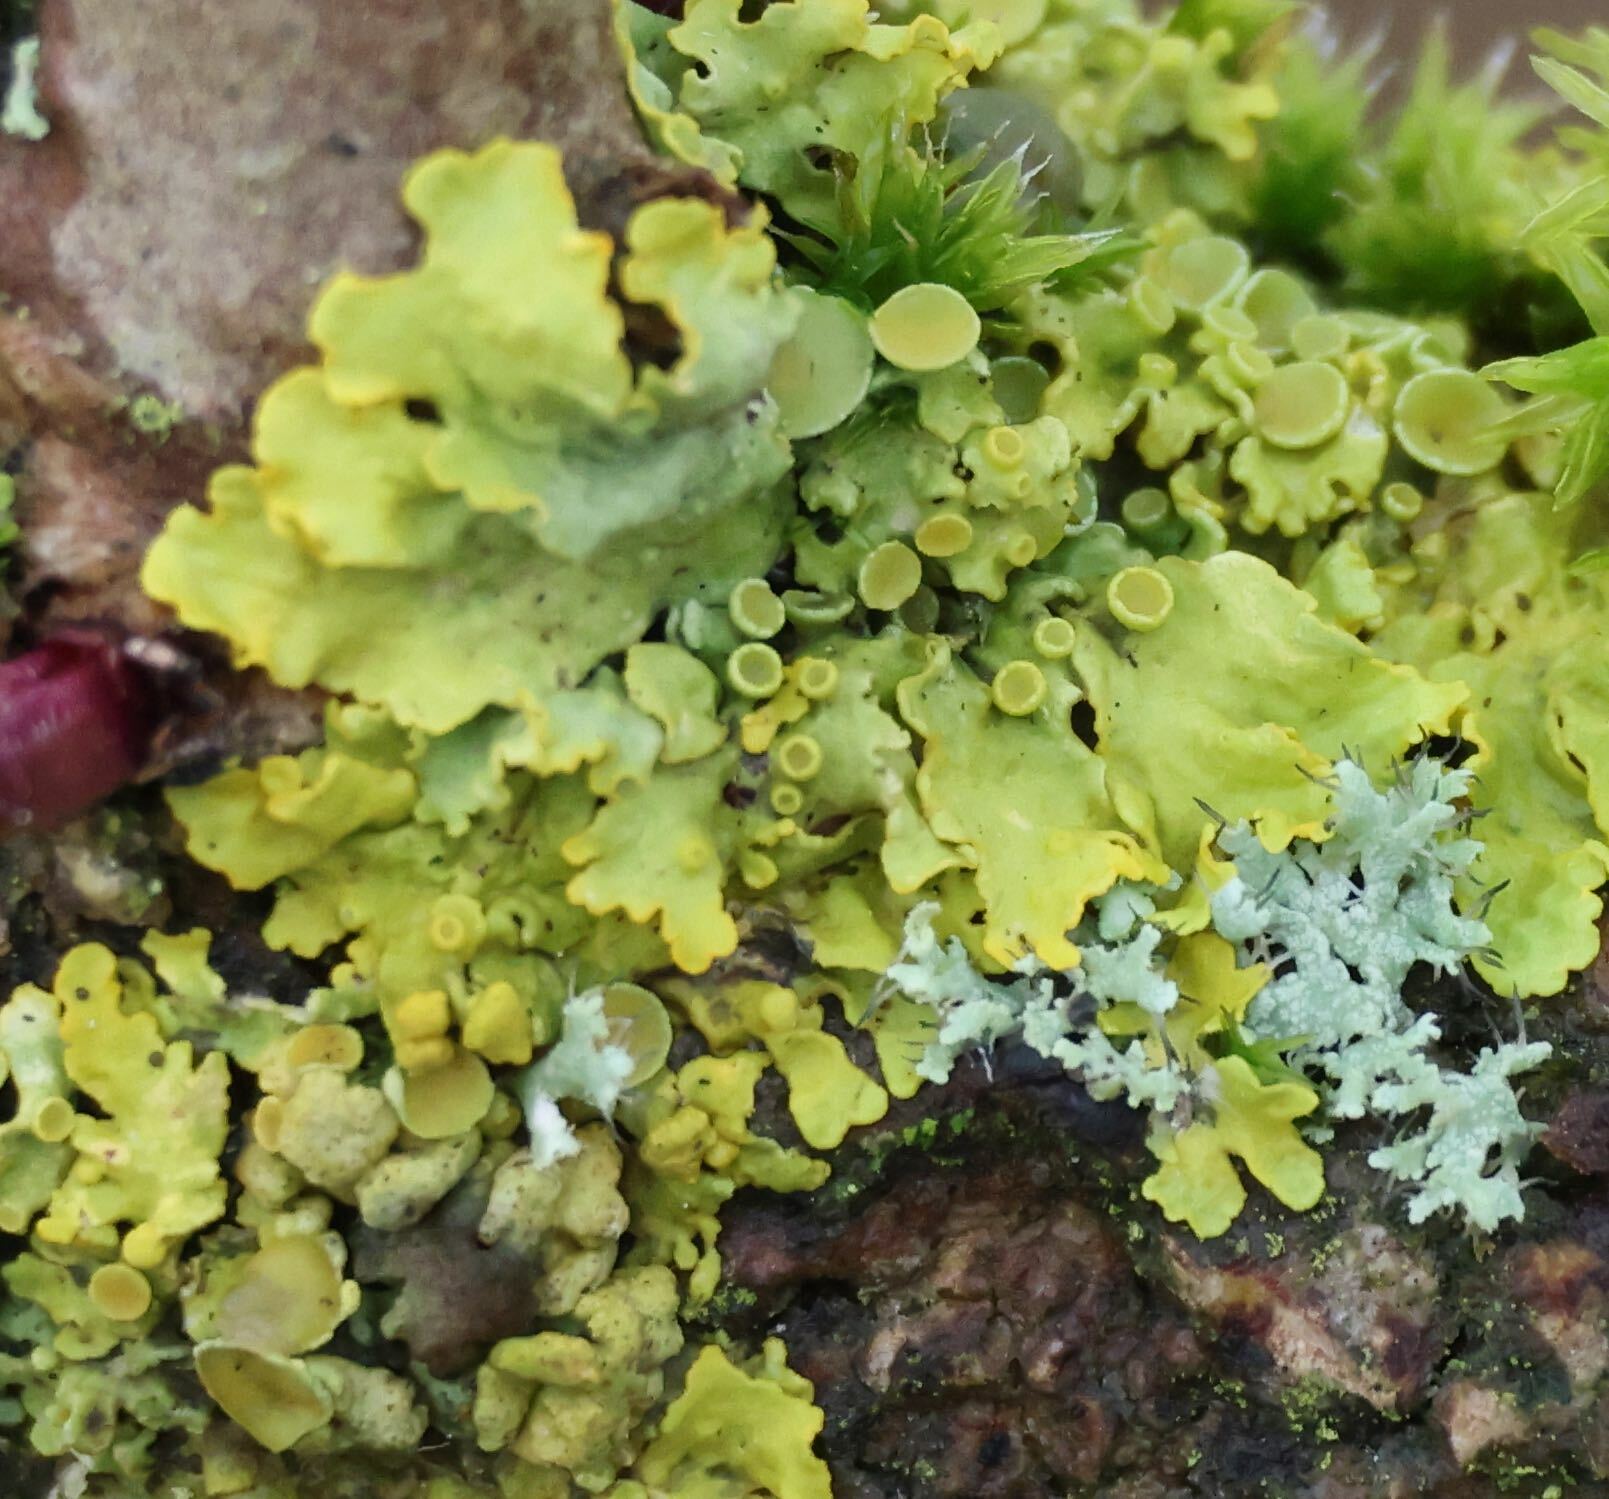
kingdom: Fungi
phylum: Ascomycota
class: Lecanoromycetes
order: Teloschistales
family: Teloschistaceae
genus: Xanthoria
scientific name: Xanthoria parietina
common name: Common orange lichen
